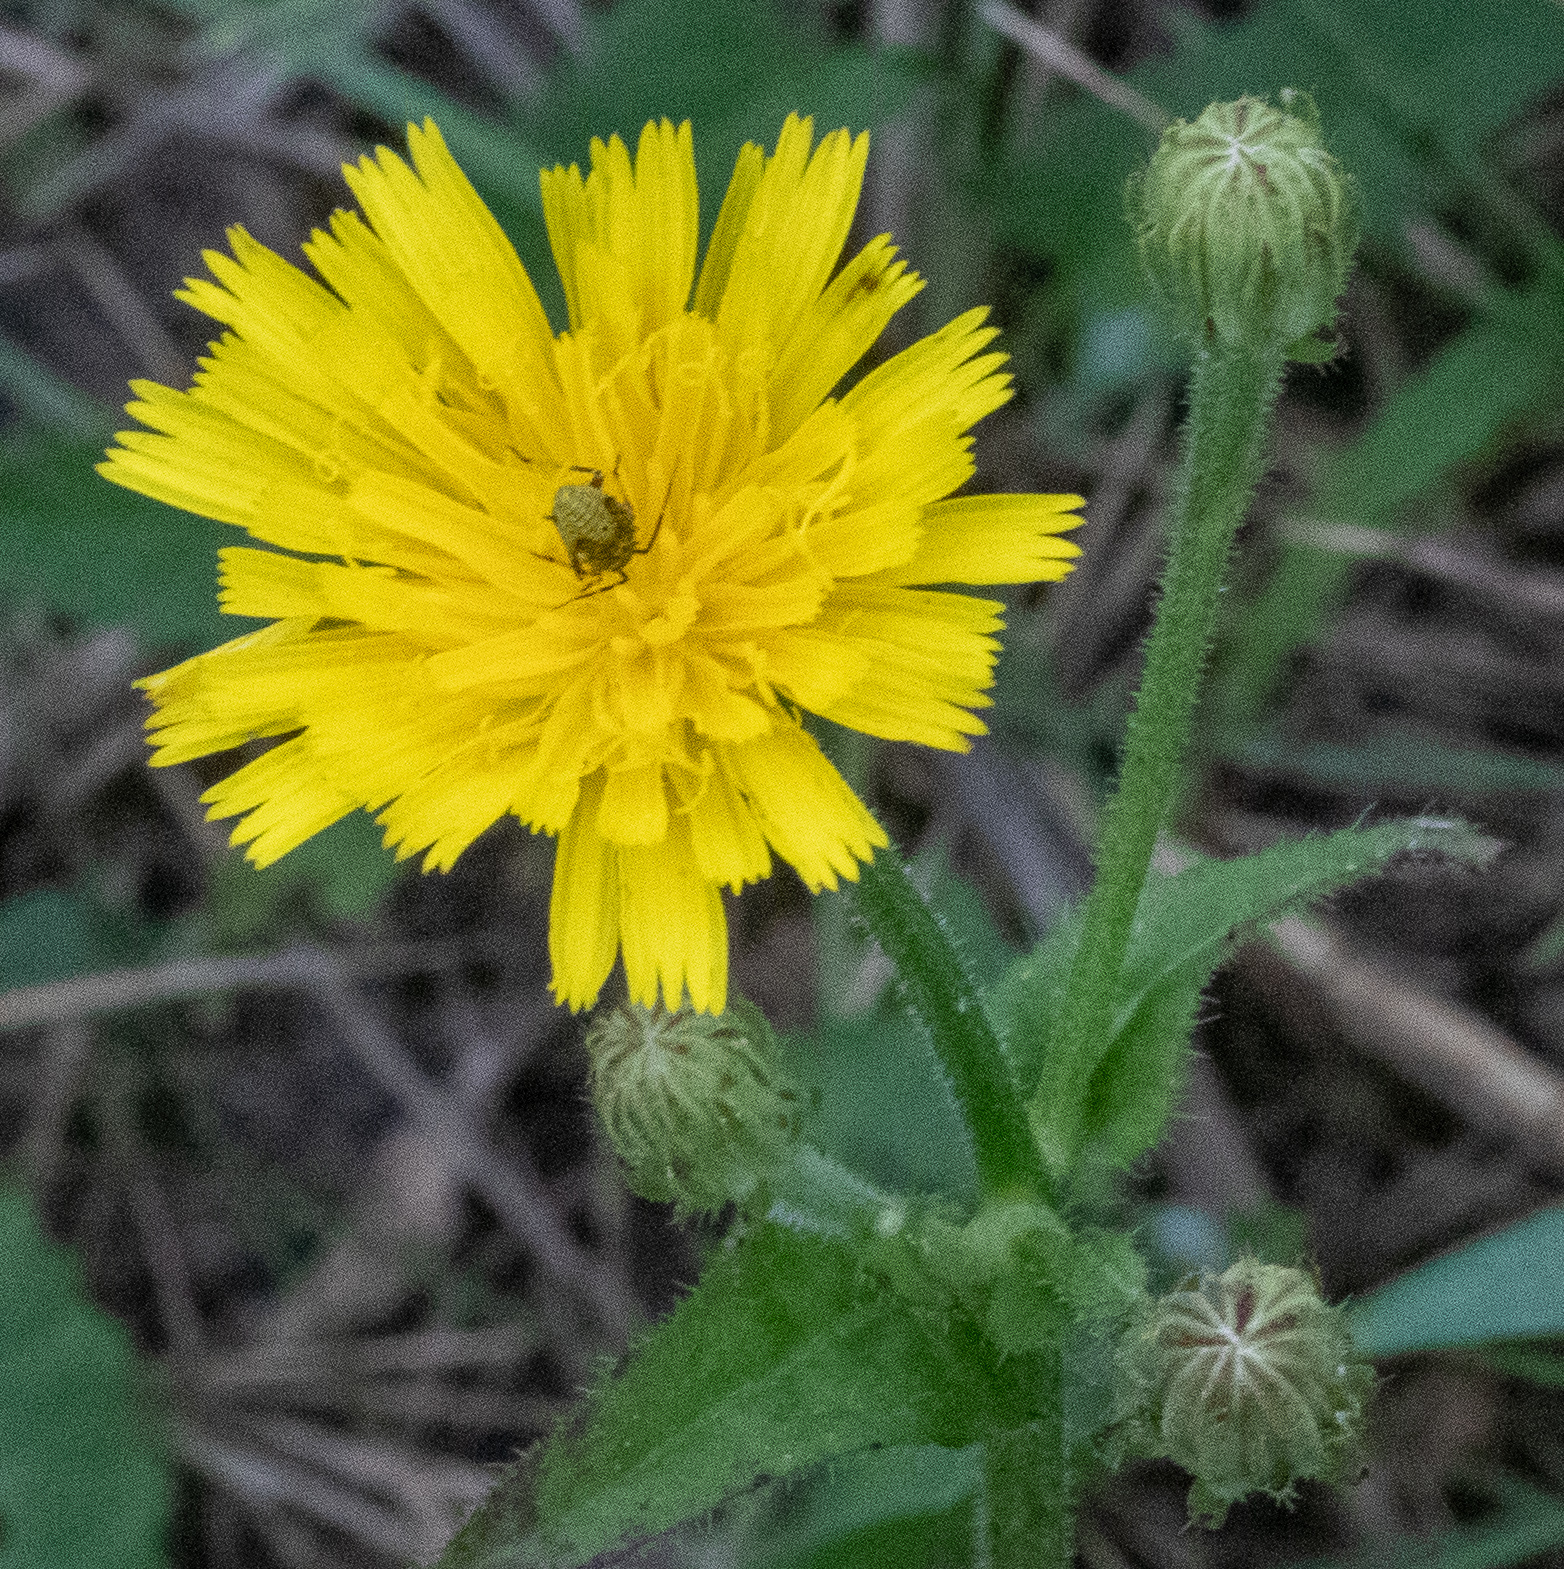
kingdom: Plantae
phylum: Tracheophyta
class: Magnoliopsida
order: Asterales
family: Asteraceae
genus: Picris
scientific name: Picris hieracioides
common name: Hawkweed oxtongue
